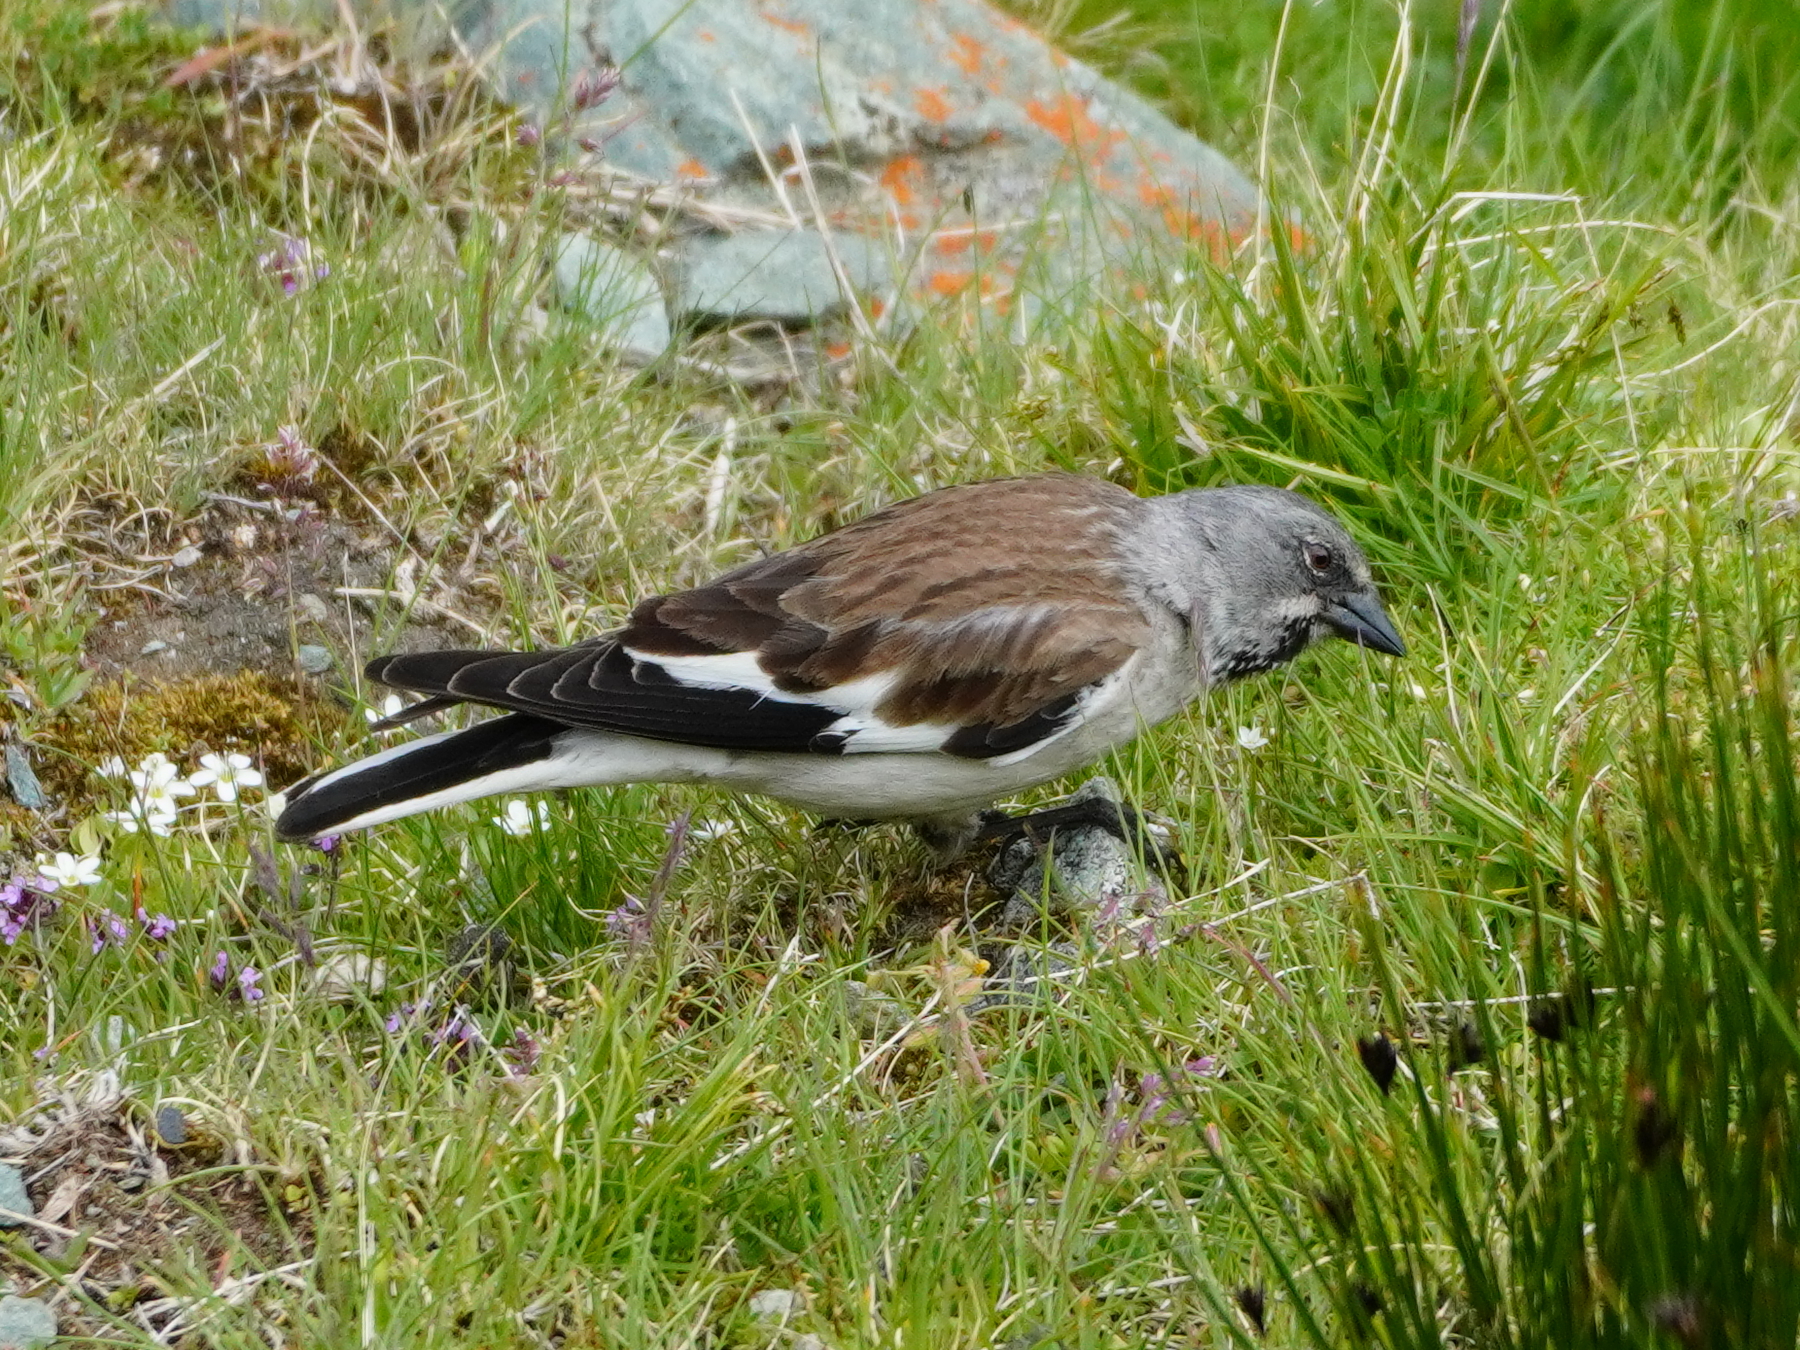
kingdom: Animalia
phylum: Chordata
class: Aves
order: Passeriformes
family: Passeridae
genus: Montifringilla
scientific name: Montifringilla nivalis
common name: White-winged snowfinch
